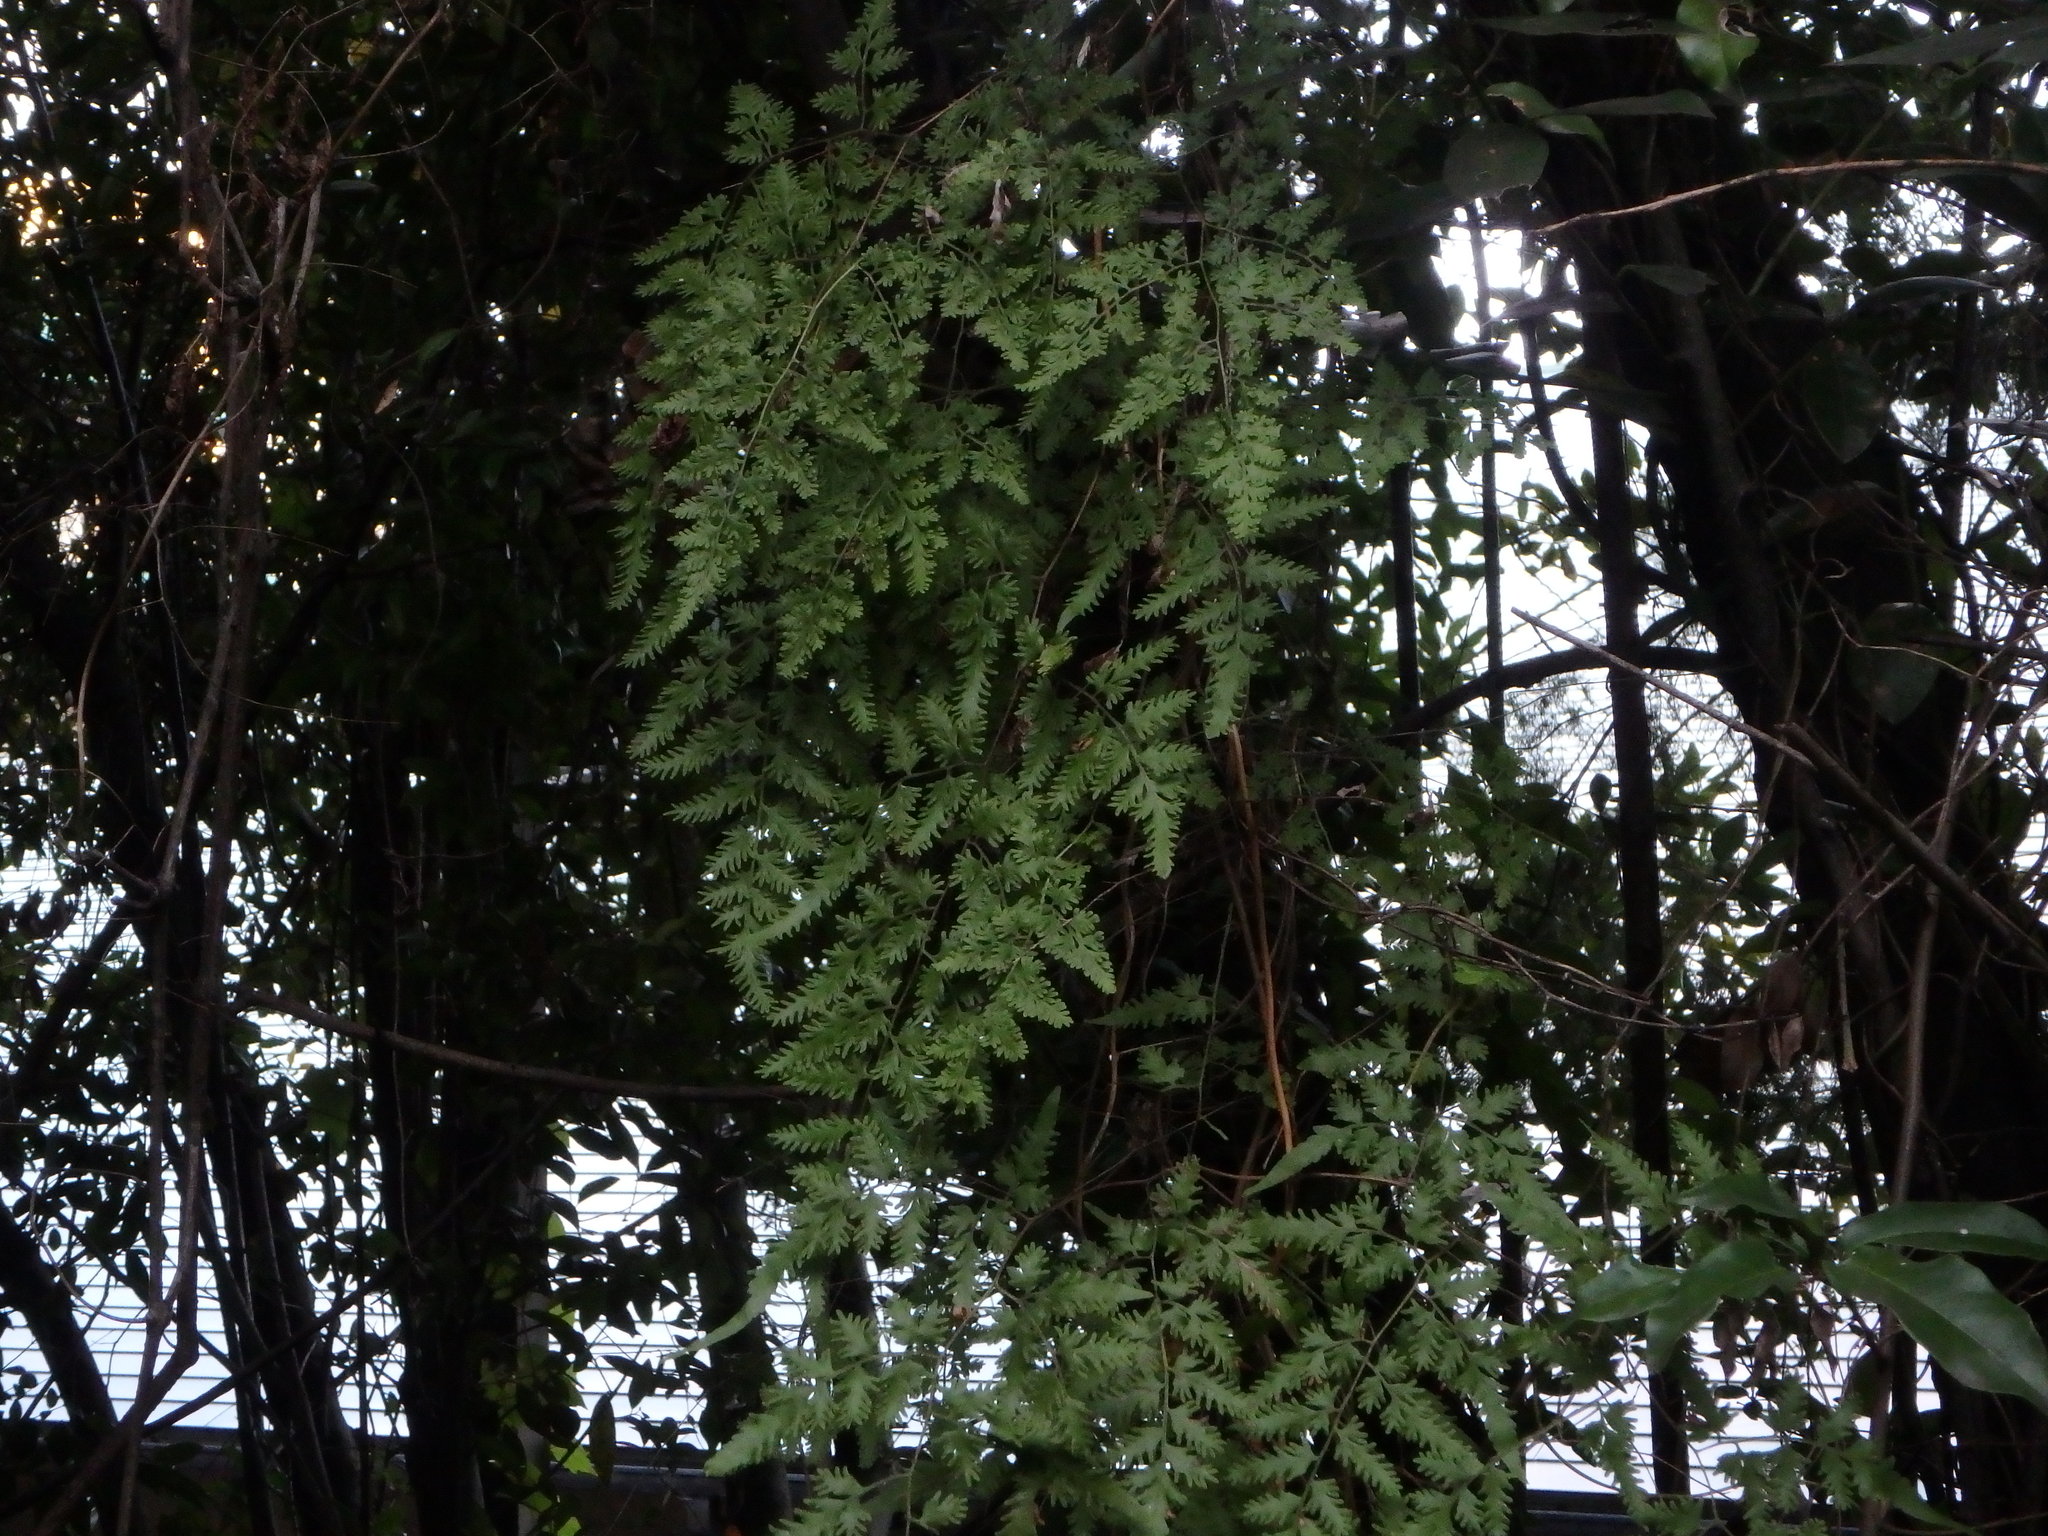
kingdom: Plantae
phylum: Tracheophyta
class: Polypodiopsida
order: Schizaeales
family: Lygodiaceae
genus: Lygodium
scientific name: Lygodium japonicum
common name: Japanese climbing fern
